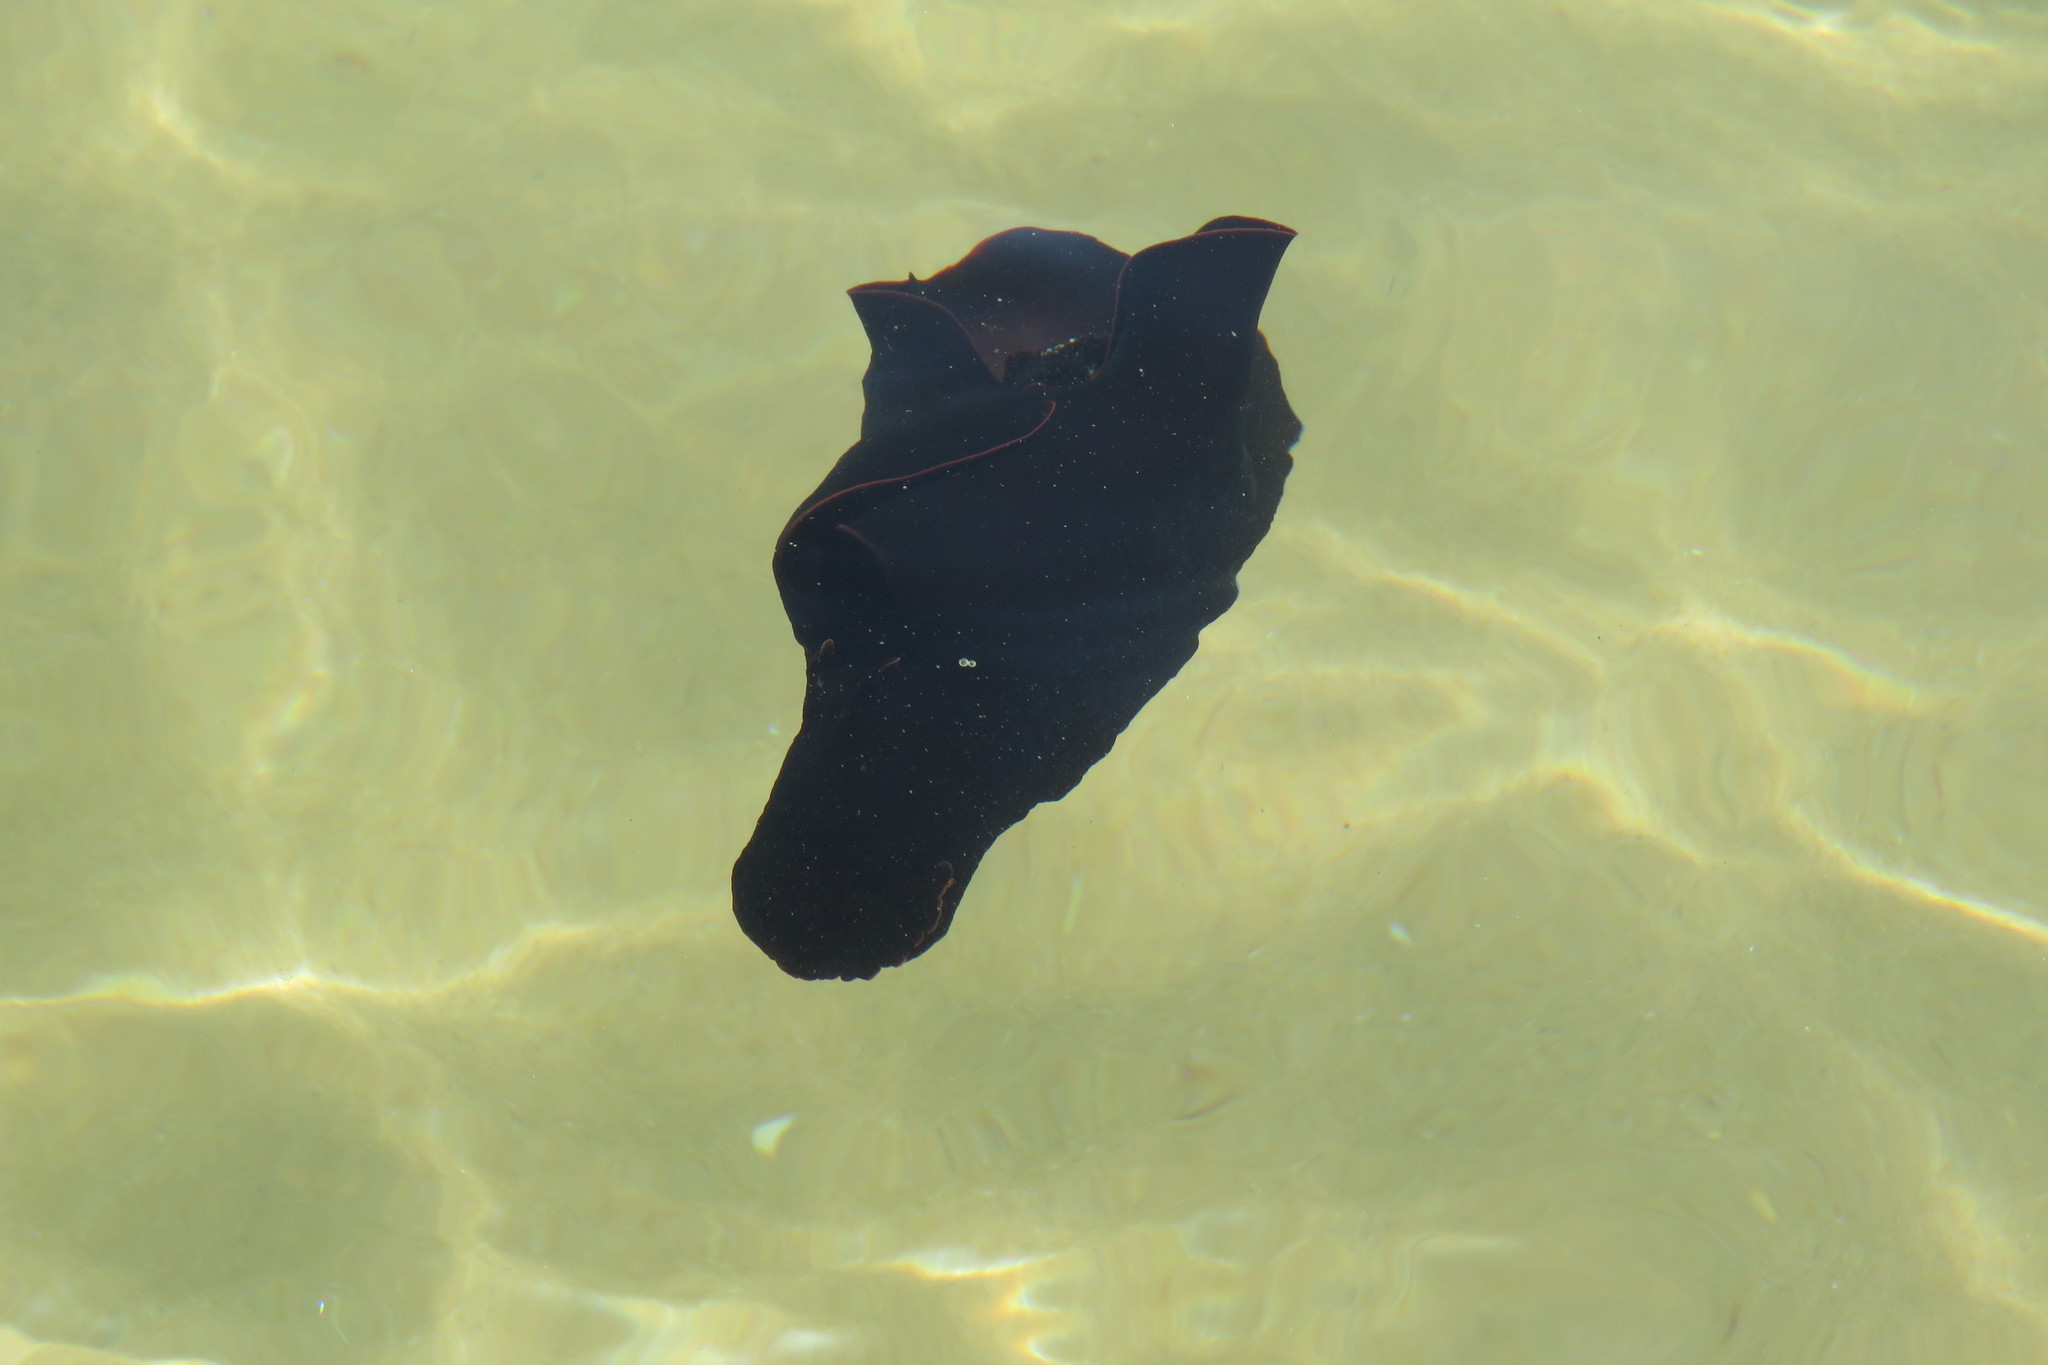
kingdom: Animalia
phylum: Mollusca
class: Gastropoda
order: Aplysiida
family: Aplysiidae
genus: Aplysia
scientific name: Aplysia fasciata
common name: Banded sea hare
